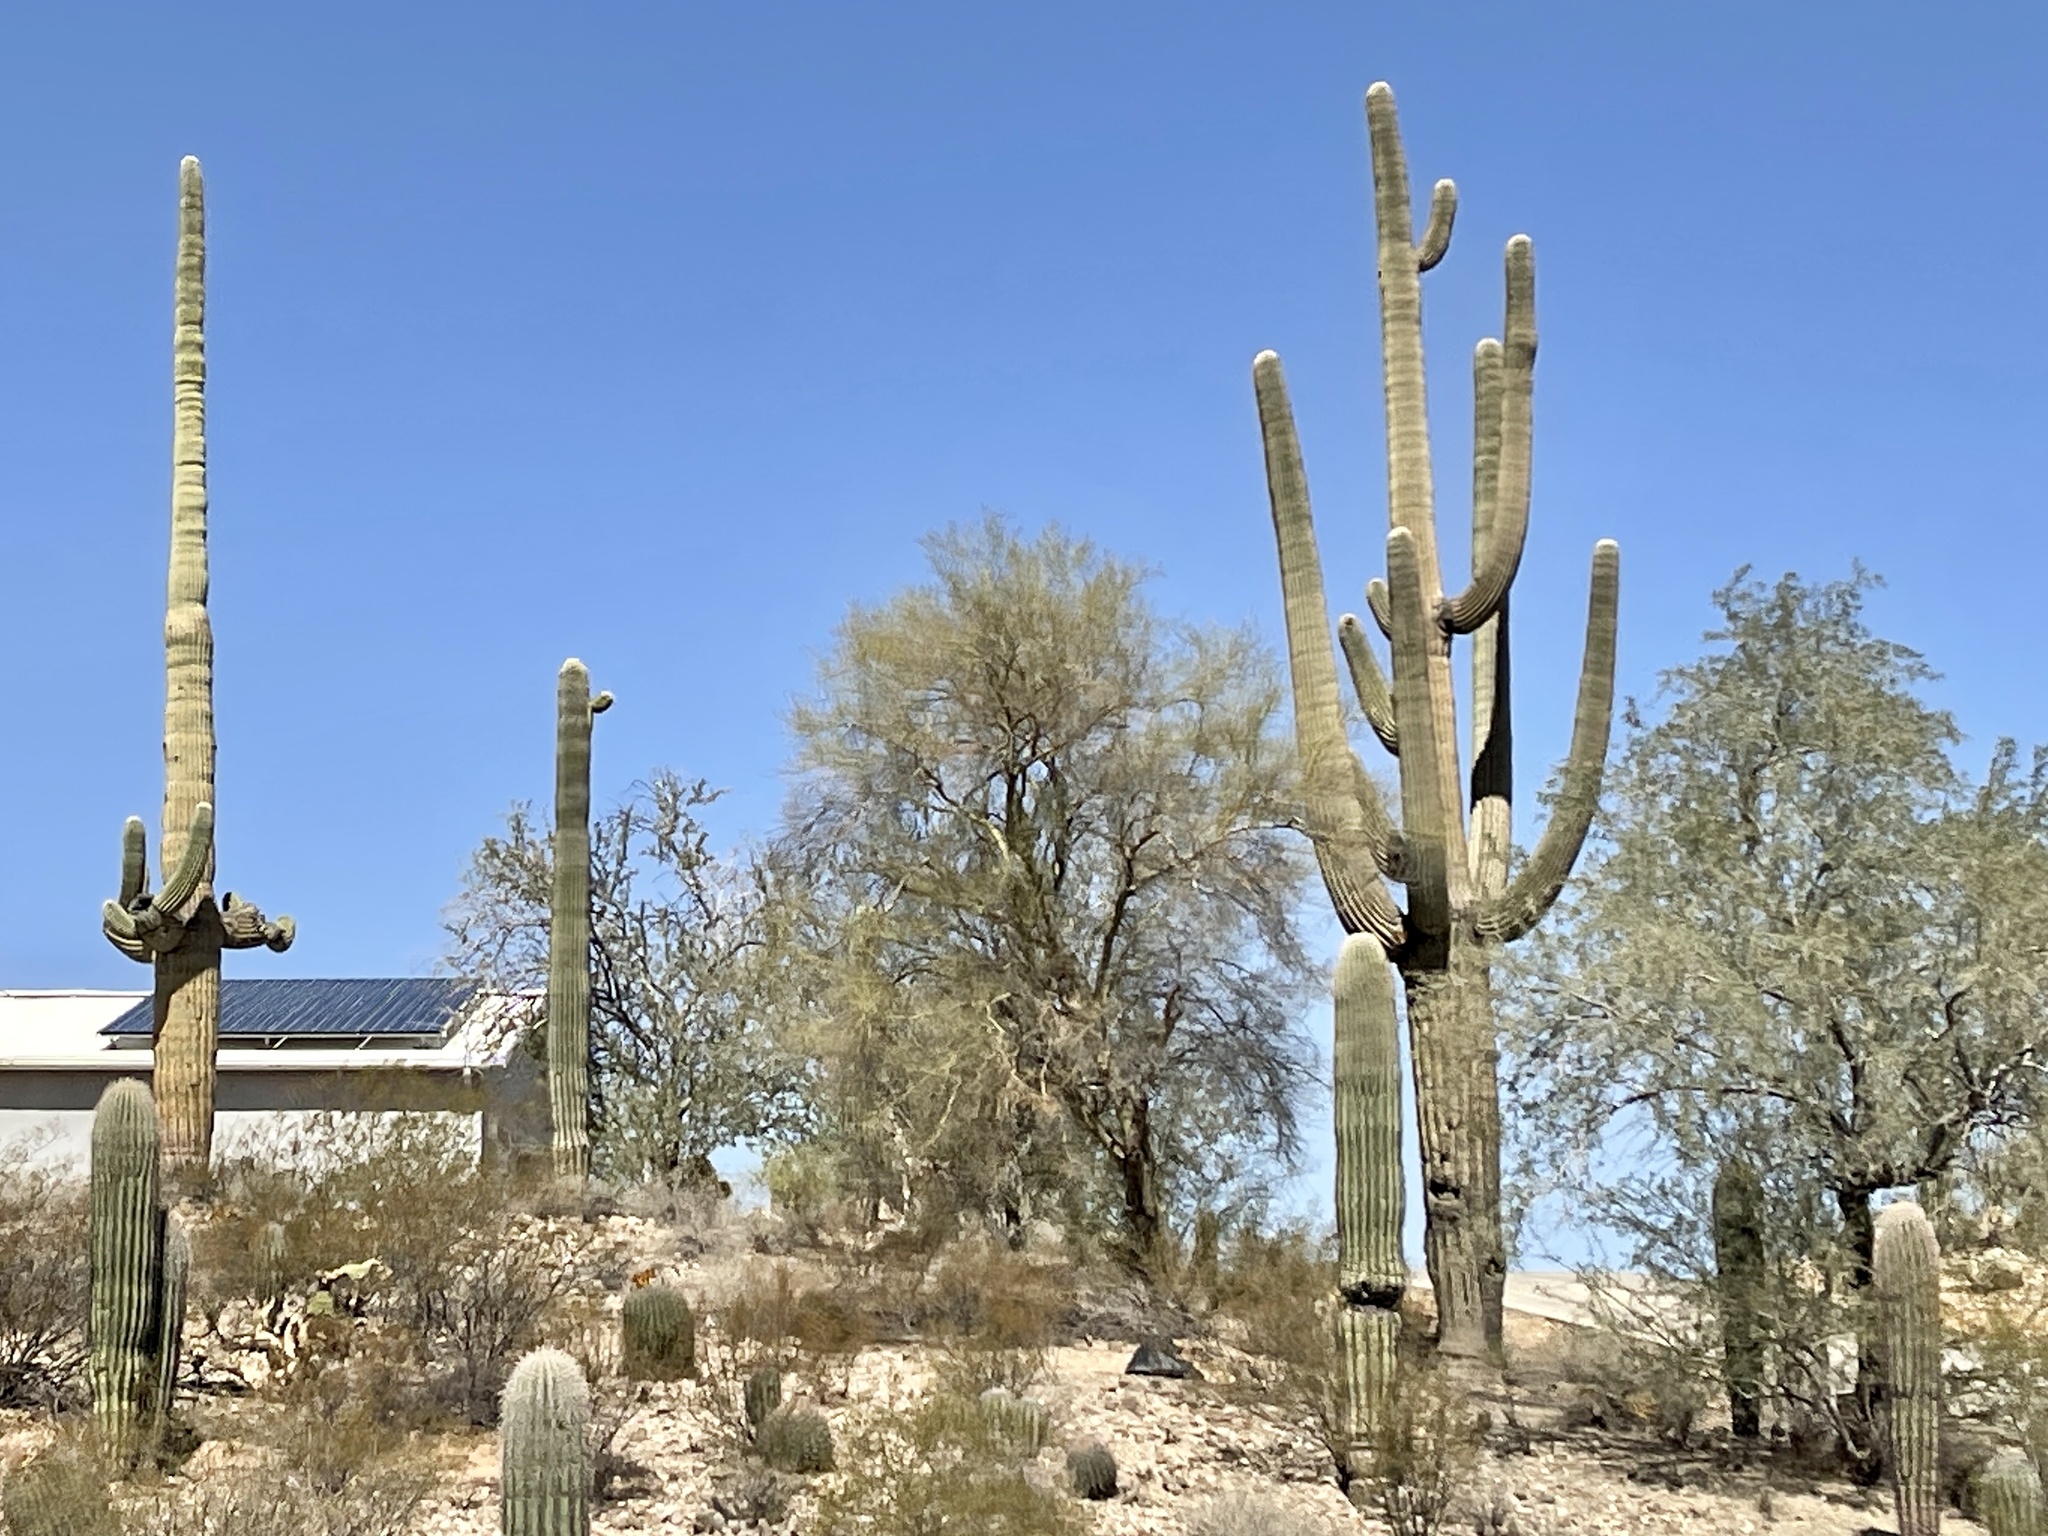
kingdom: Plantae
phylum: Tracheophyta
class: Magnoliopsida
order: Caryophyllales
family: Cactaceae
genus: Carnegiea
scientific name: Carnegiea gigantea
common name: Saguaro
